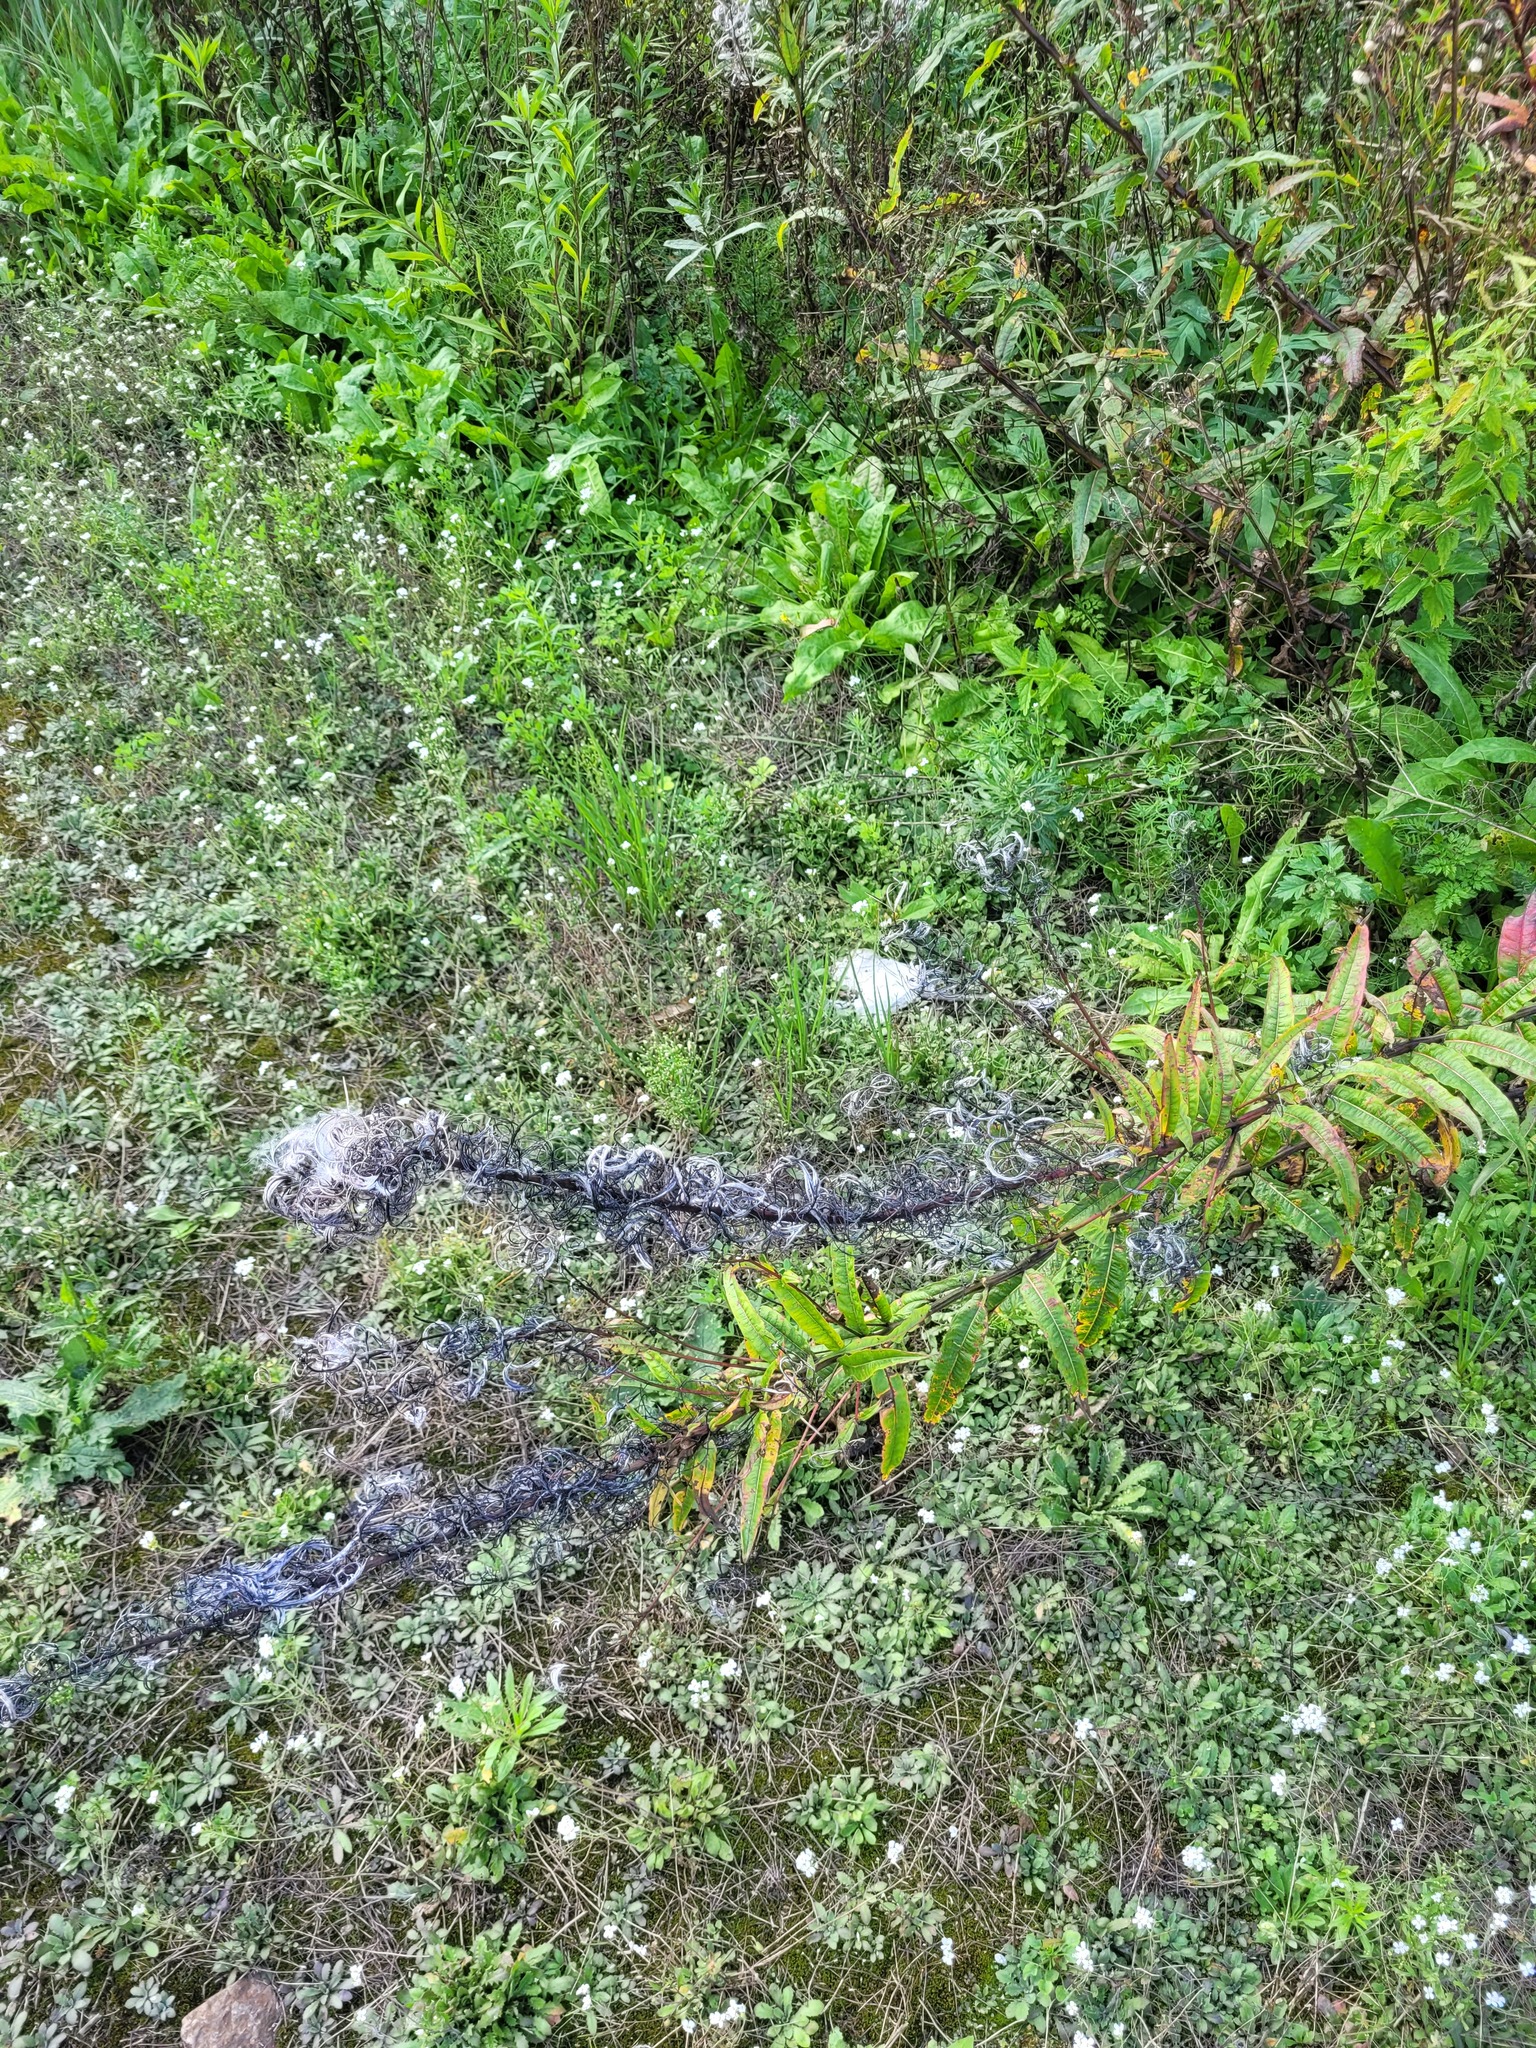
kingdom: Plantae
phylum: Tracheophyta
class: Magnoliopsida
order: Myrtales
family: Onagraceae
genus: Chamaenerion
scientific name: Chamaenerion angustifolium
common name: Fireweed
